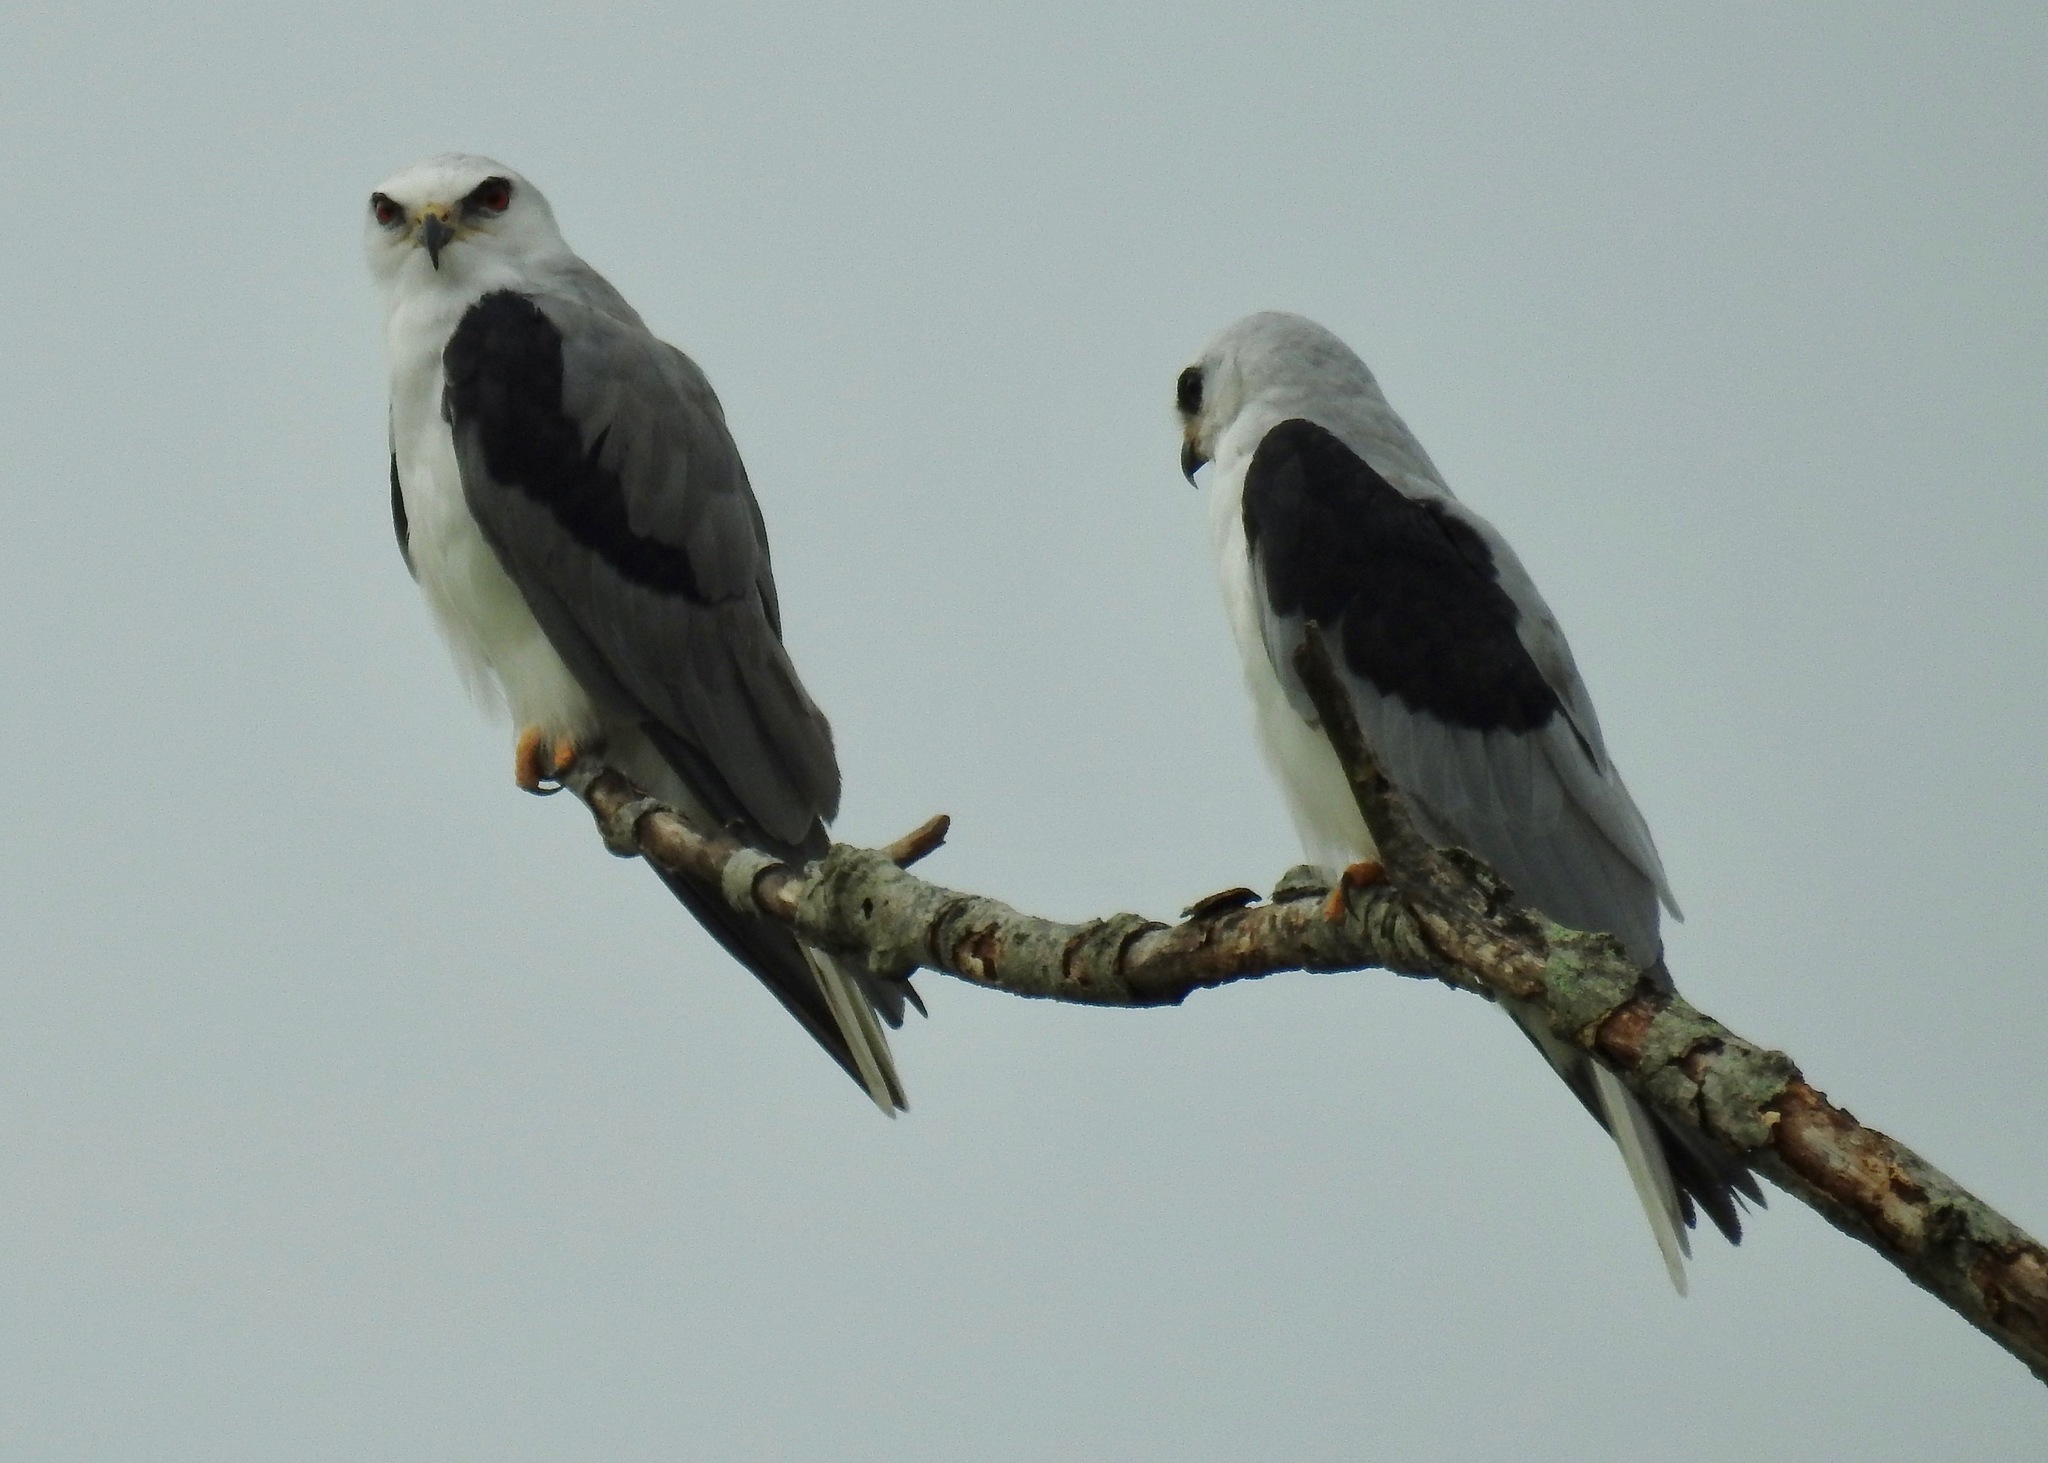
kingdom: Animalia
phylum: Chordata
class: Aves
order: Accipitriformes
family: Accipitridae
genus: Elanus
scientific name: Elanus leucurus
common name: White-tailed kite
